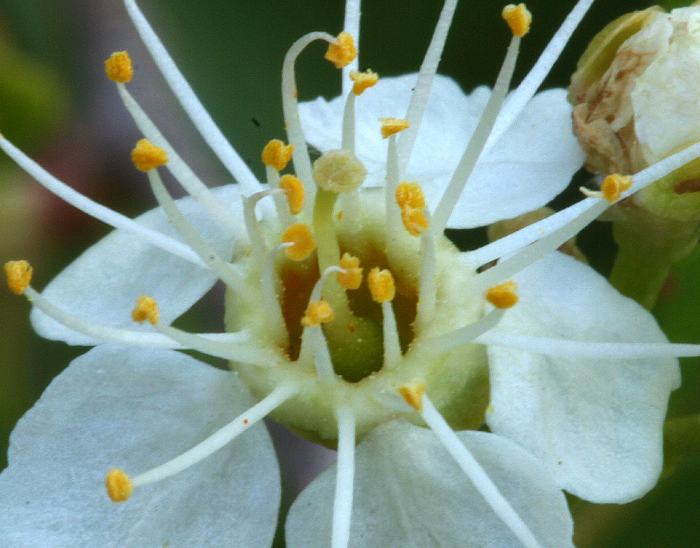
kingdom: Plantae
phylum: Tracheophyta
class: Magnoliopsida
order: Rosales
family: Rosaceae
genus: Prunus
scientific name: Prunus emarginata
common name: Bitter cherry
